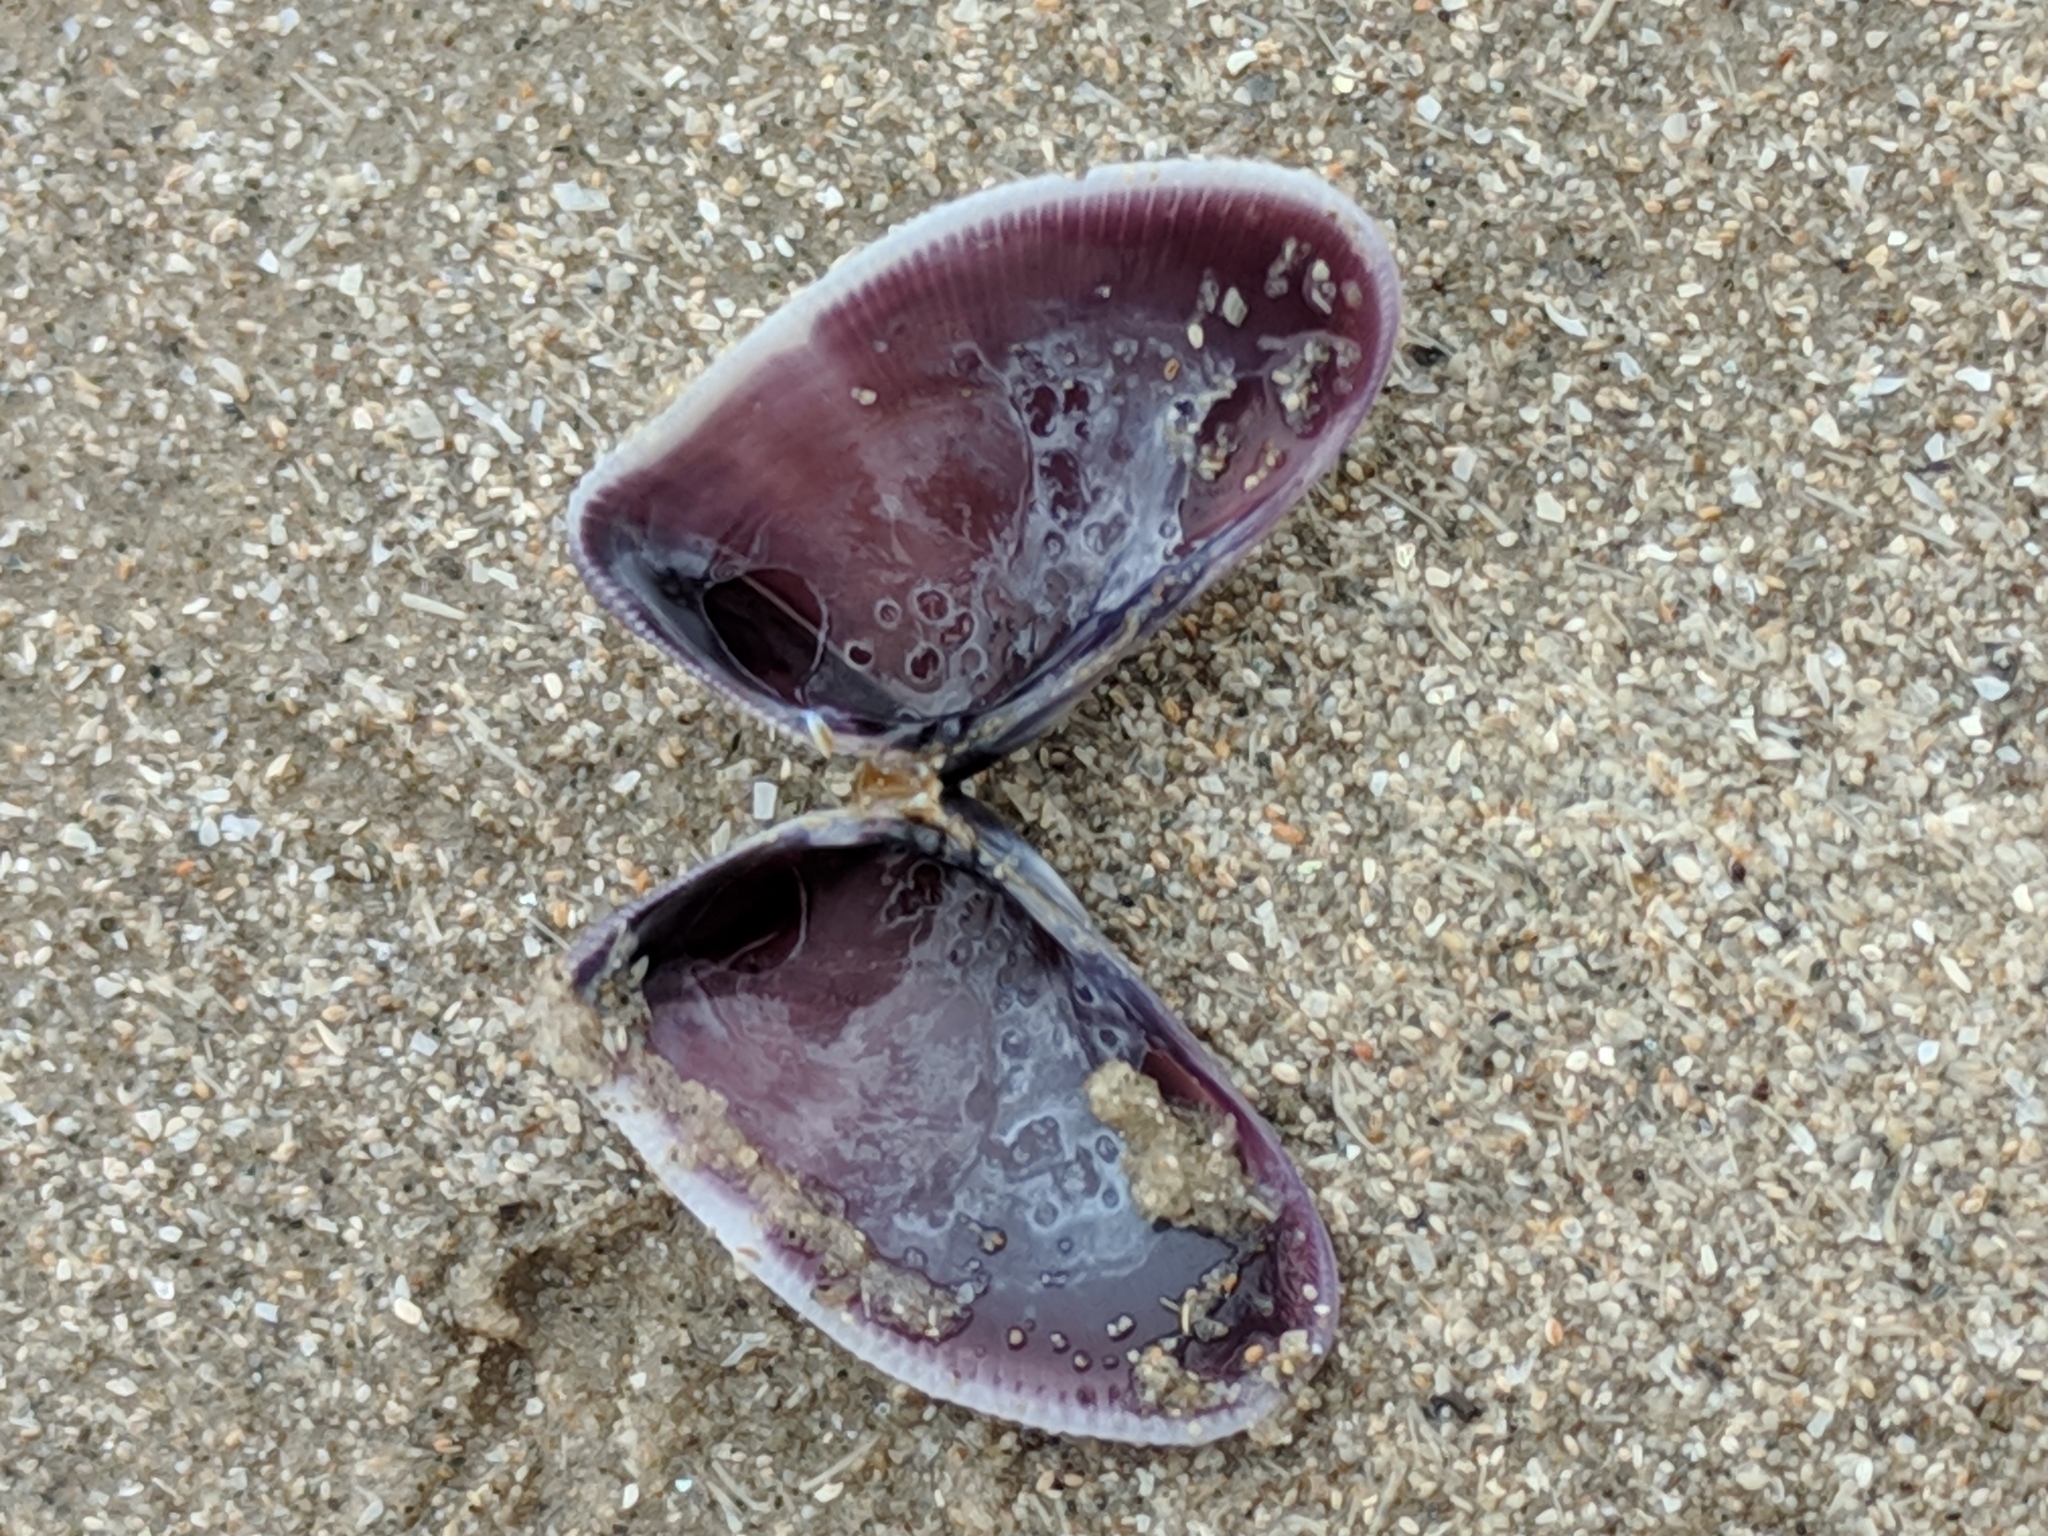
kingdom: Animalia
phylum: Mollusca
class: Bivalvia
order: Cardiida
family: Donacidae
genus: Donax
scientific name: Donax texasianus
